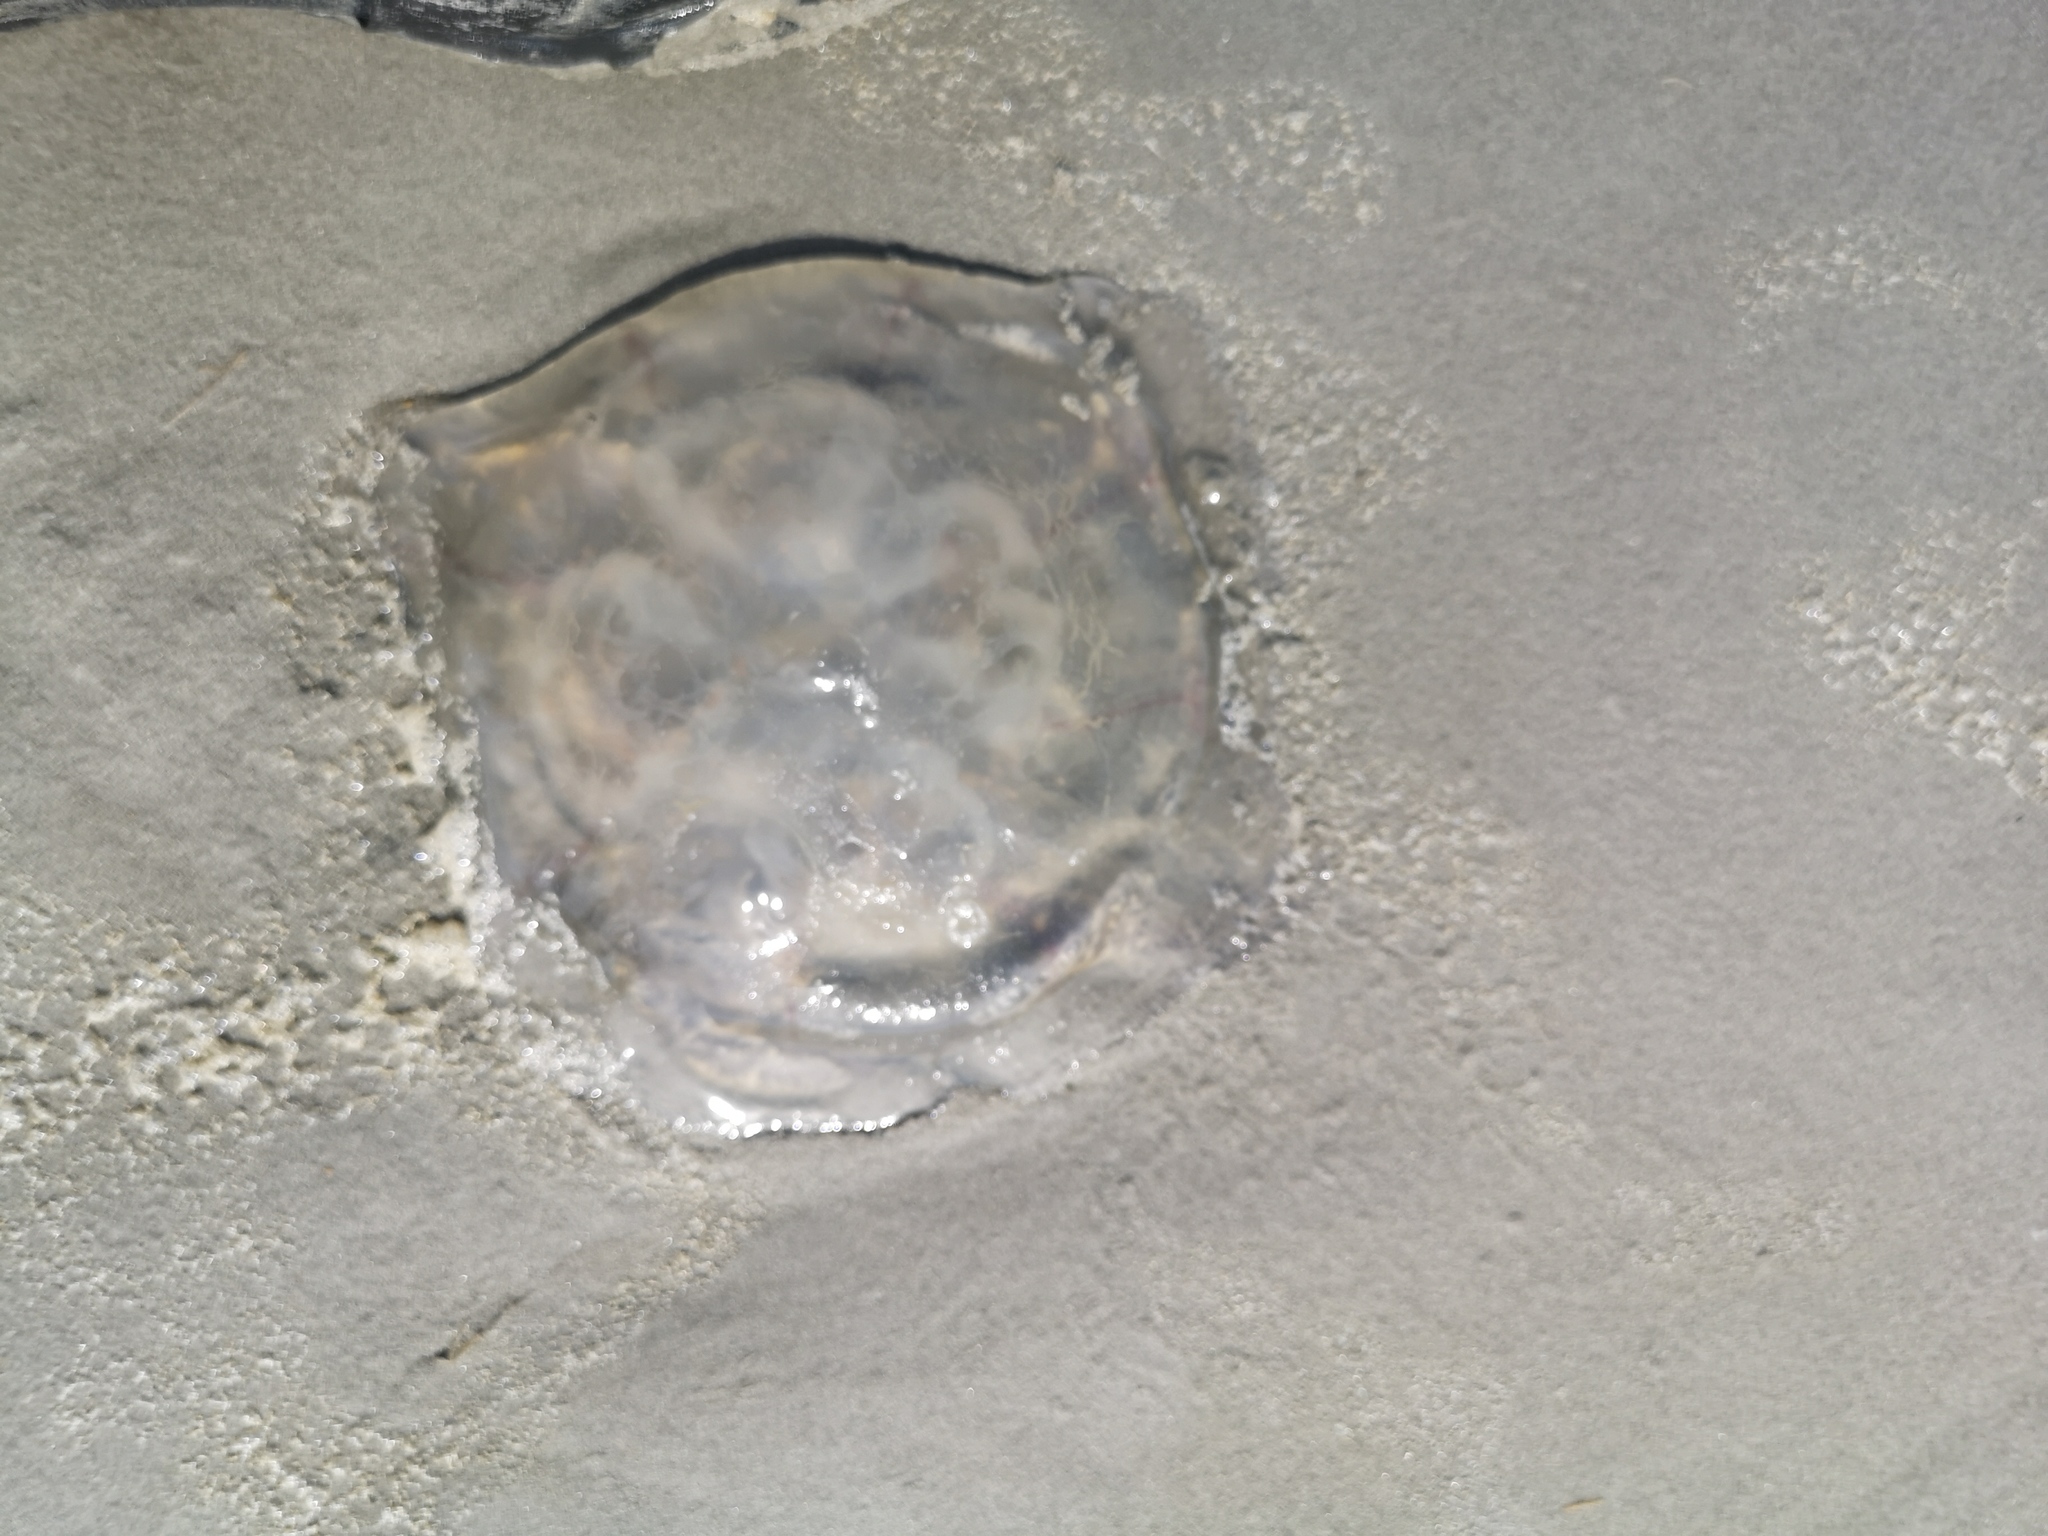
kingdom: Animalia
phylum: Cnidaria
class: Scyphozoa
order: Semaeostomeae
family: Ulmaridae
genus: Aurelia
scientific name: Aurelia aurita
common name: Moon jellyfish
